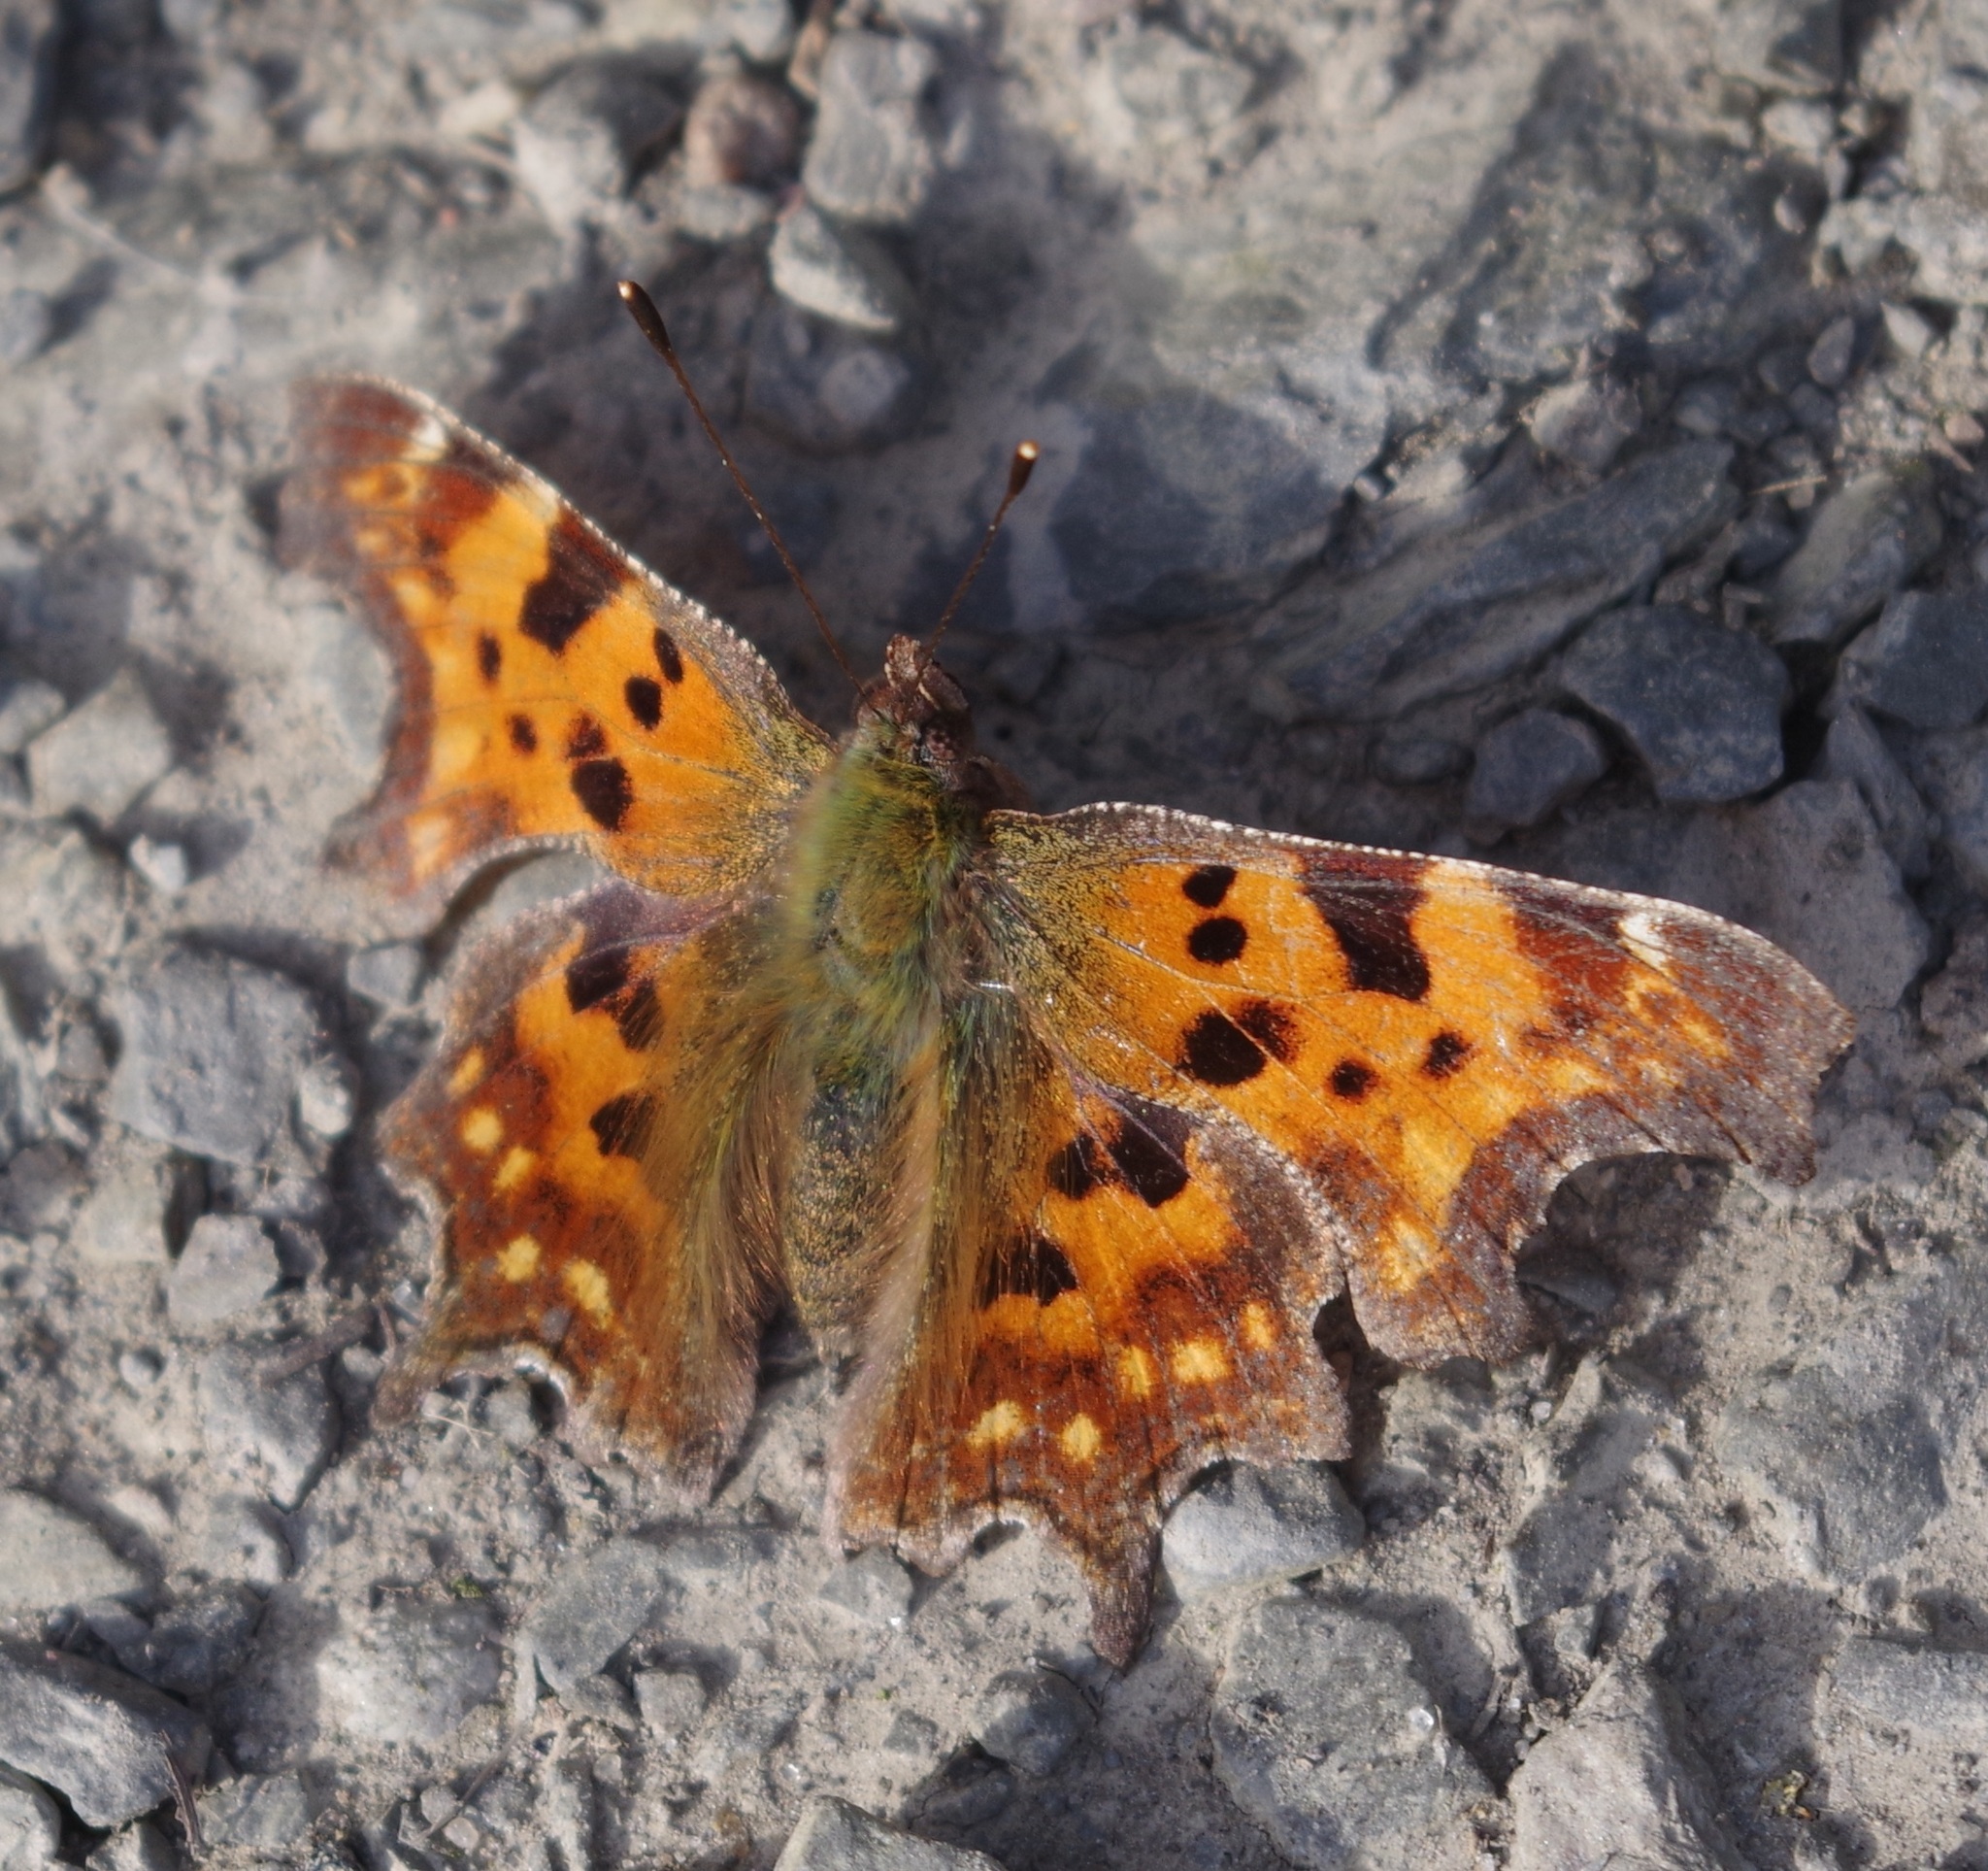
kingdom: Animalia
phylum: Arthropoda
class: Insecta
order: Lepidoptera
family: Nymphalidae
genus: Polygonia
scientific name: Polygonia c-album
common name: Comma
